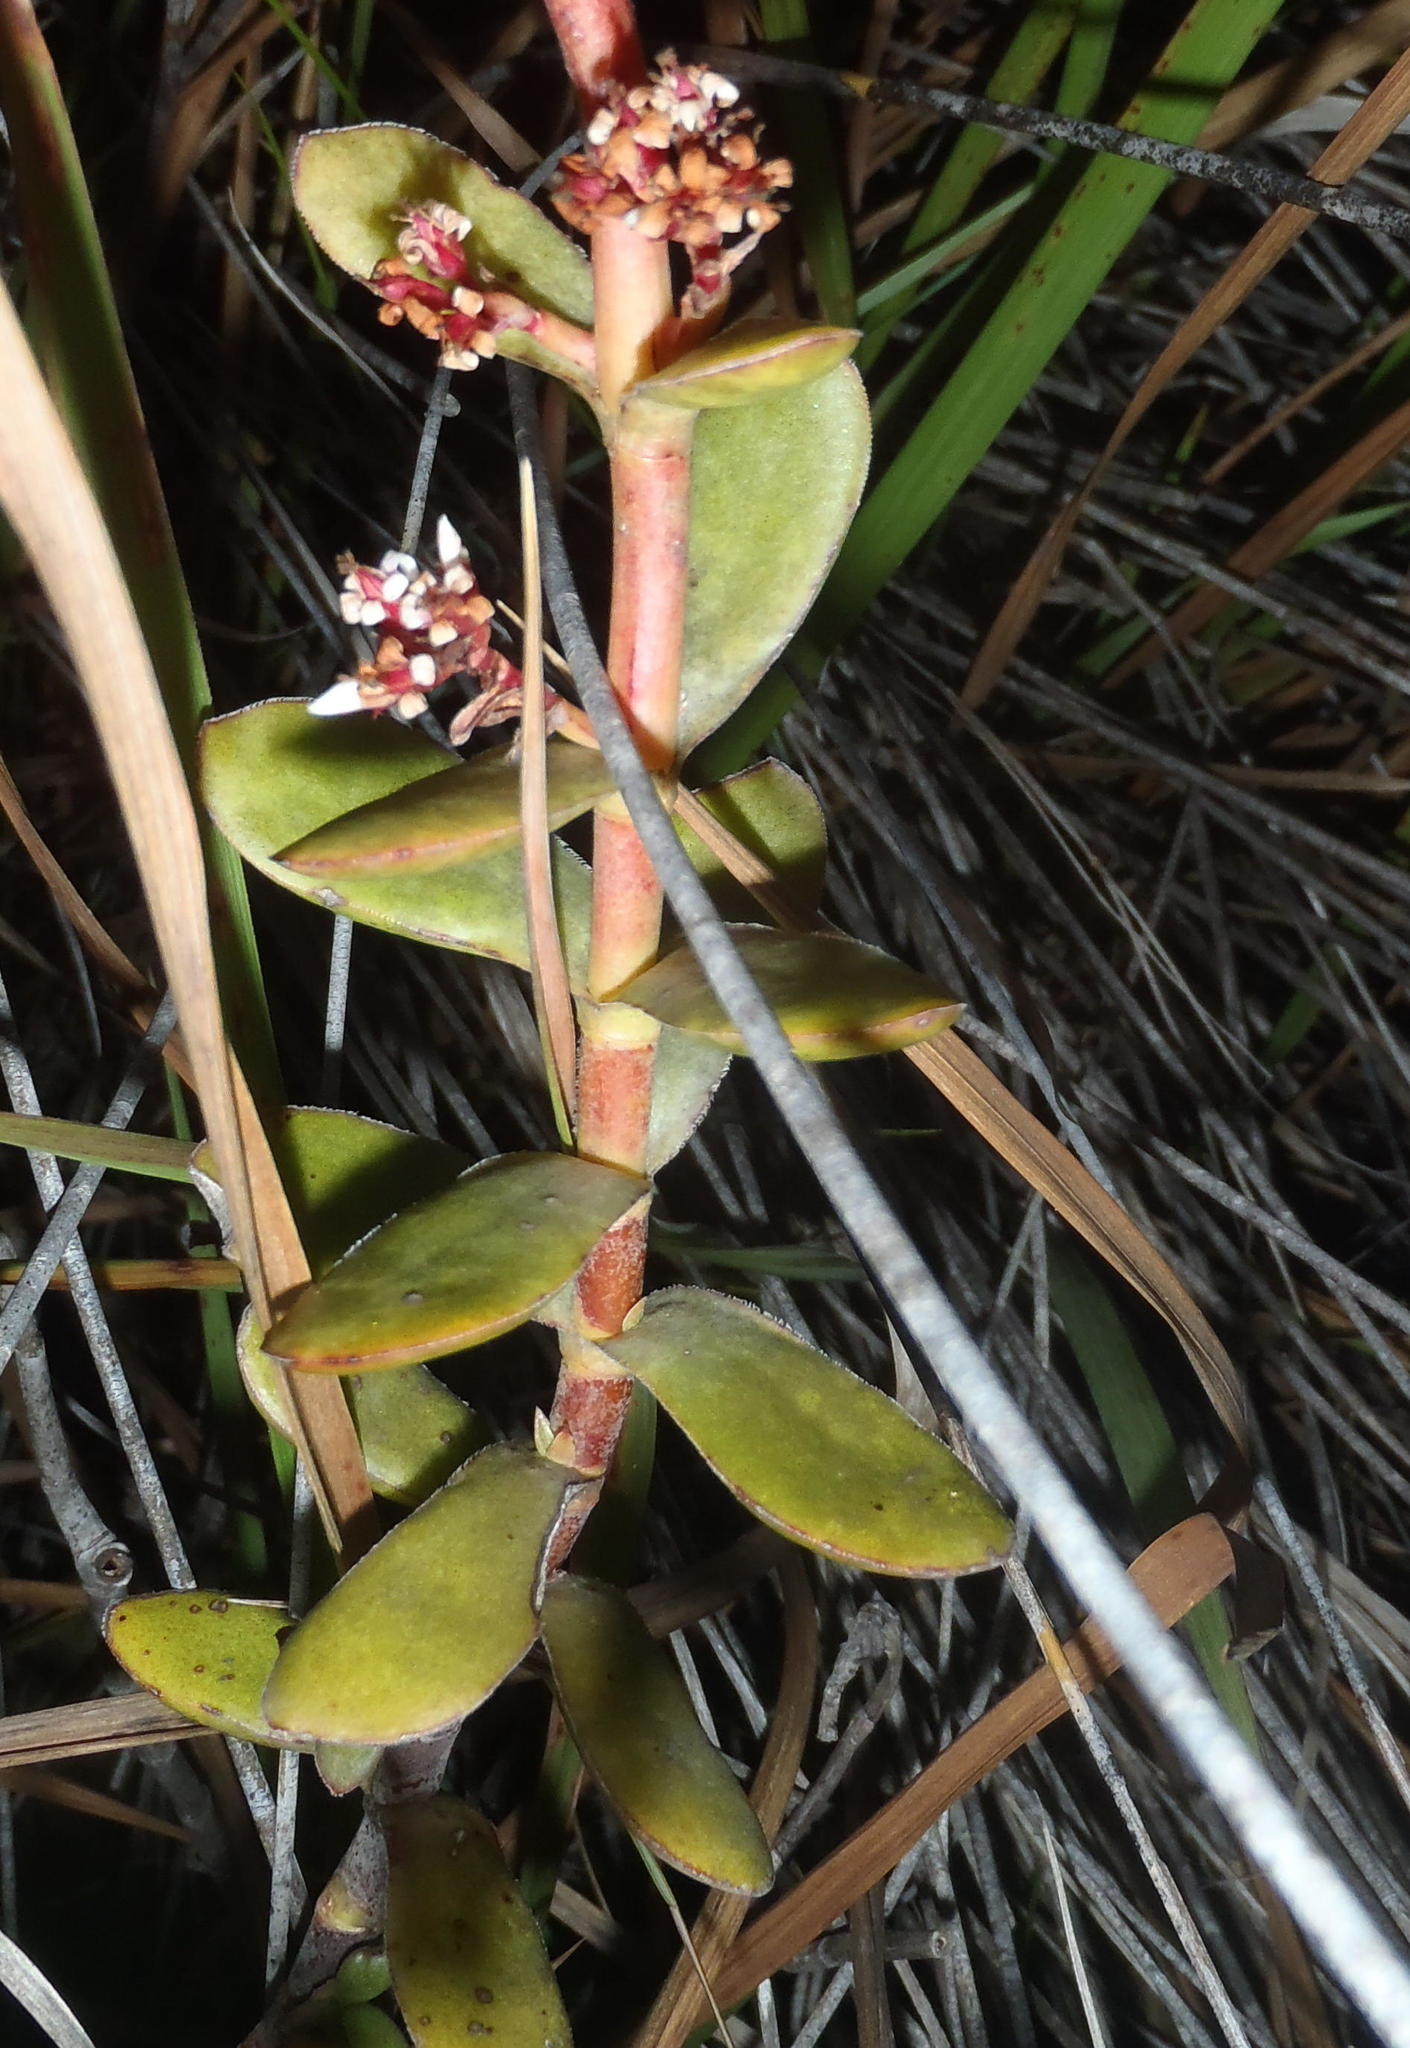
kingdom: Plantae
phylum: Tracheophyta
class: Magnoliopsida
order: Saxifragales
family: Crassulaceae
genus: Crassula
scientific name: Crassula rubricaulis
